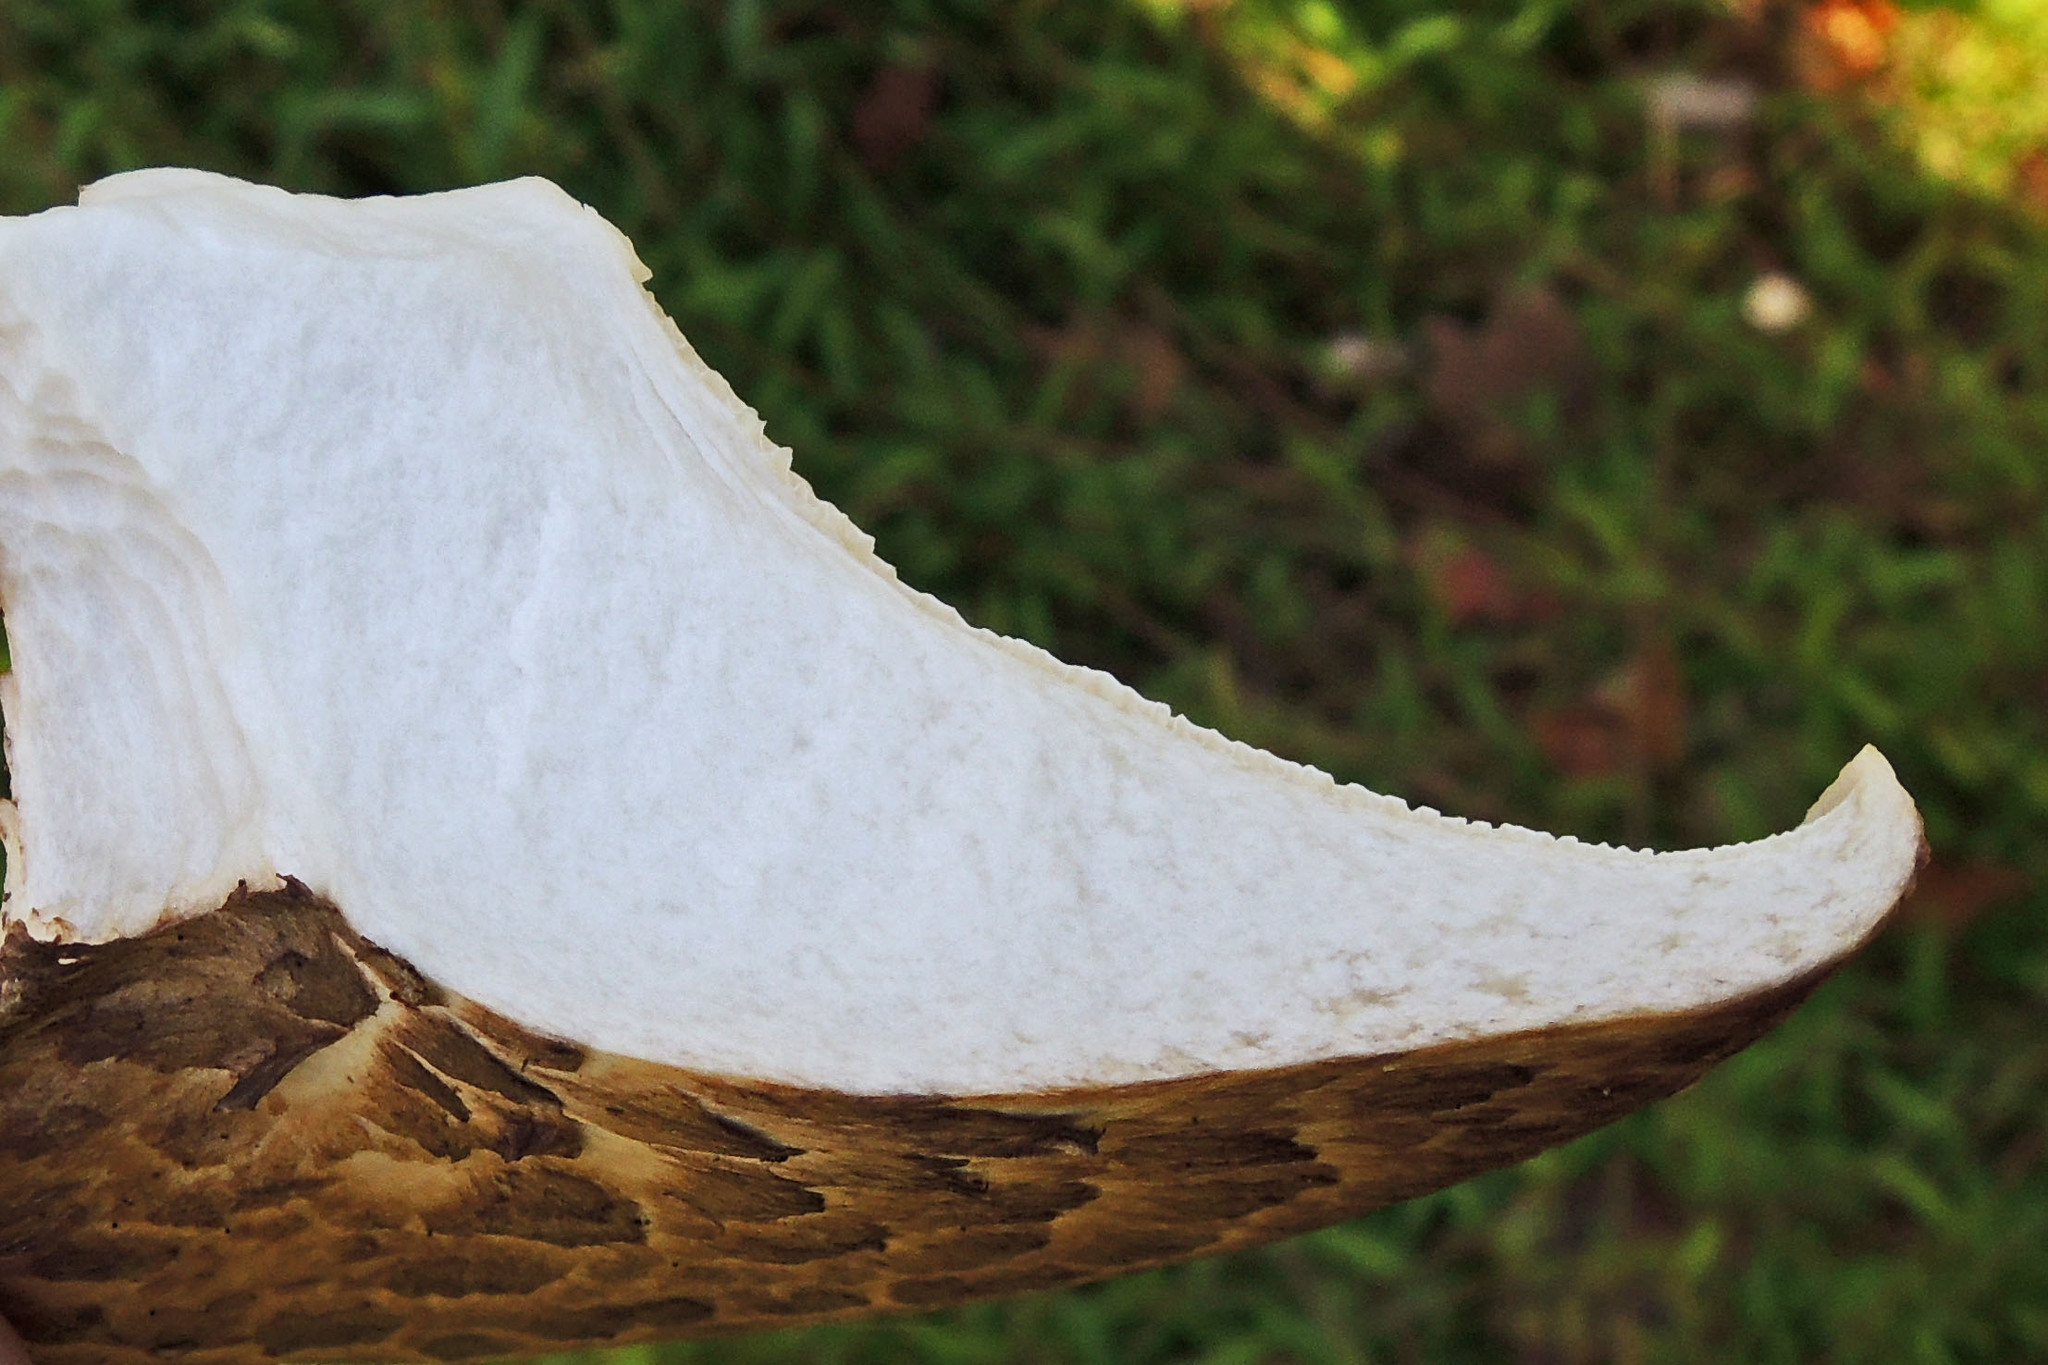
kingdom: Fungi
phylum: Basidiomycota
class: Agaricomycetes
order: Polyporales
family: Polyporaceae
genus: Cerioporus
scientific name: Cerioporus squamosus
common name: Dryad's saddle
